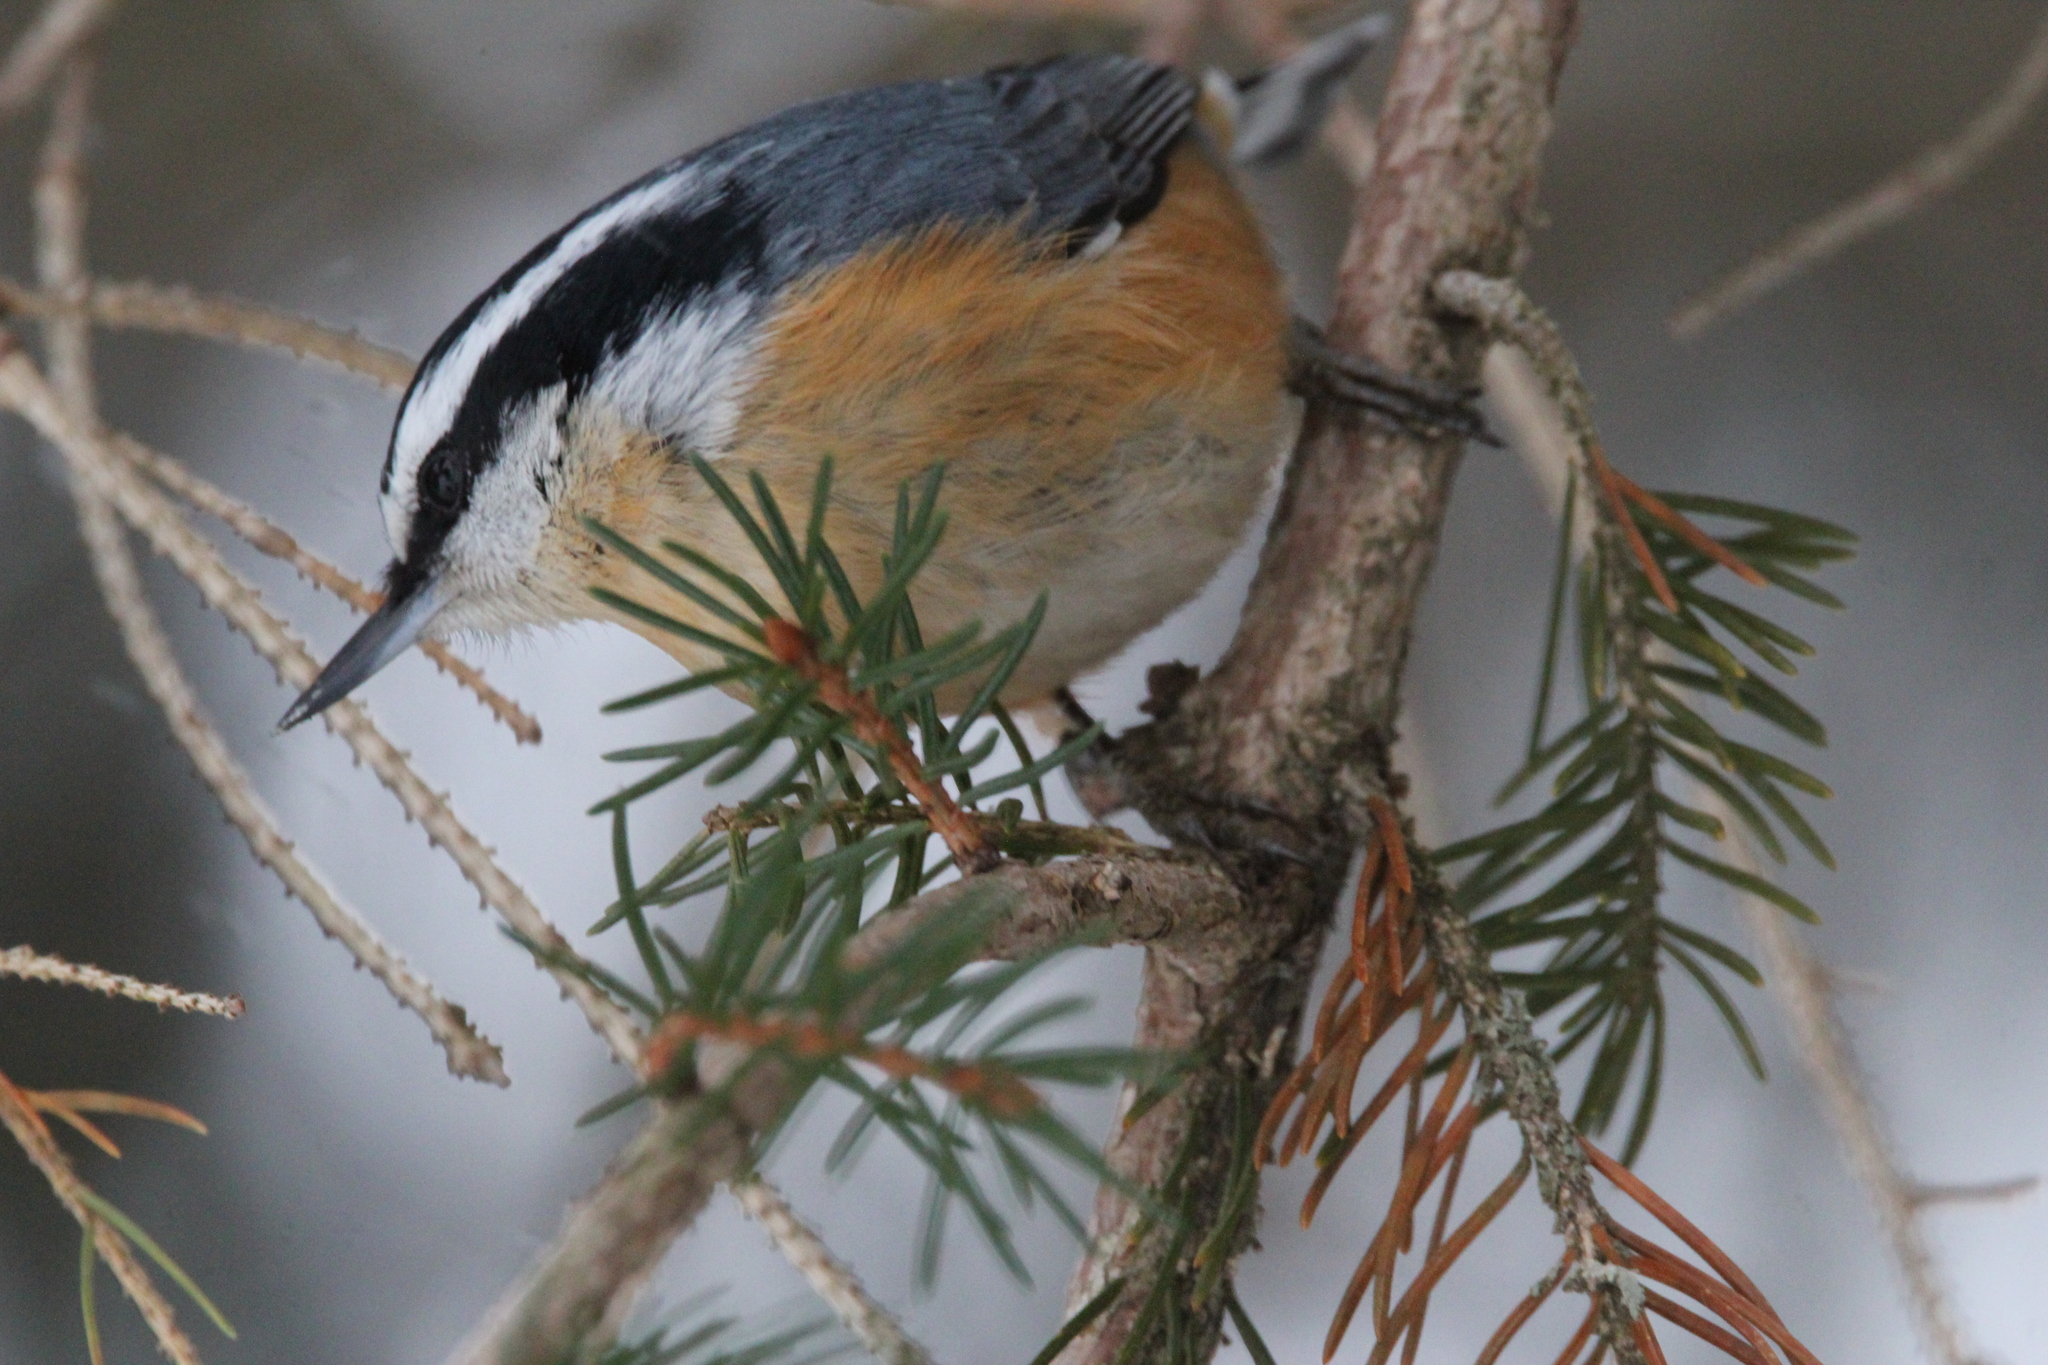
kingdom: Animalia
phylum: Chordata
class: Aves
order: Passeriformes
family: Sittidae
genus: Sitta
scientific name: Sitta canadensis
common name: Red-breasted nuthatch
